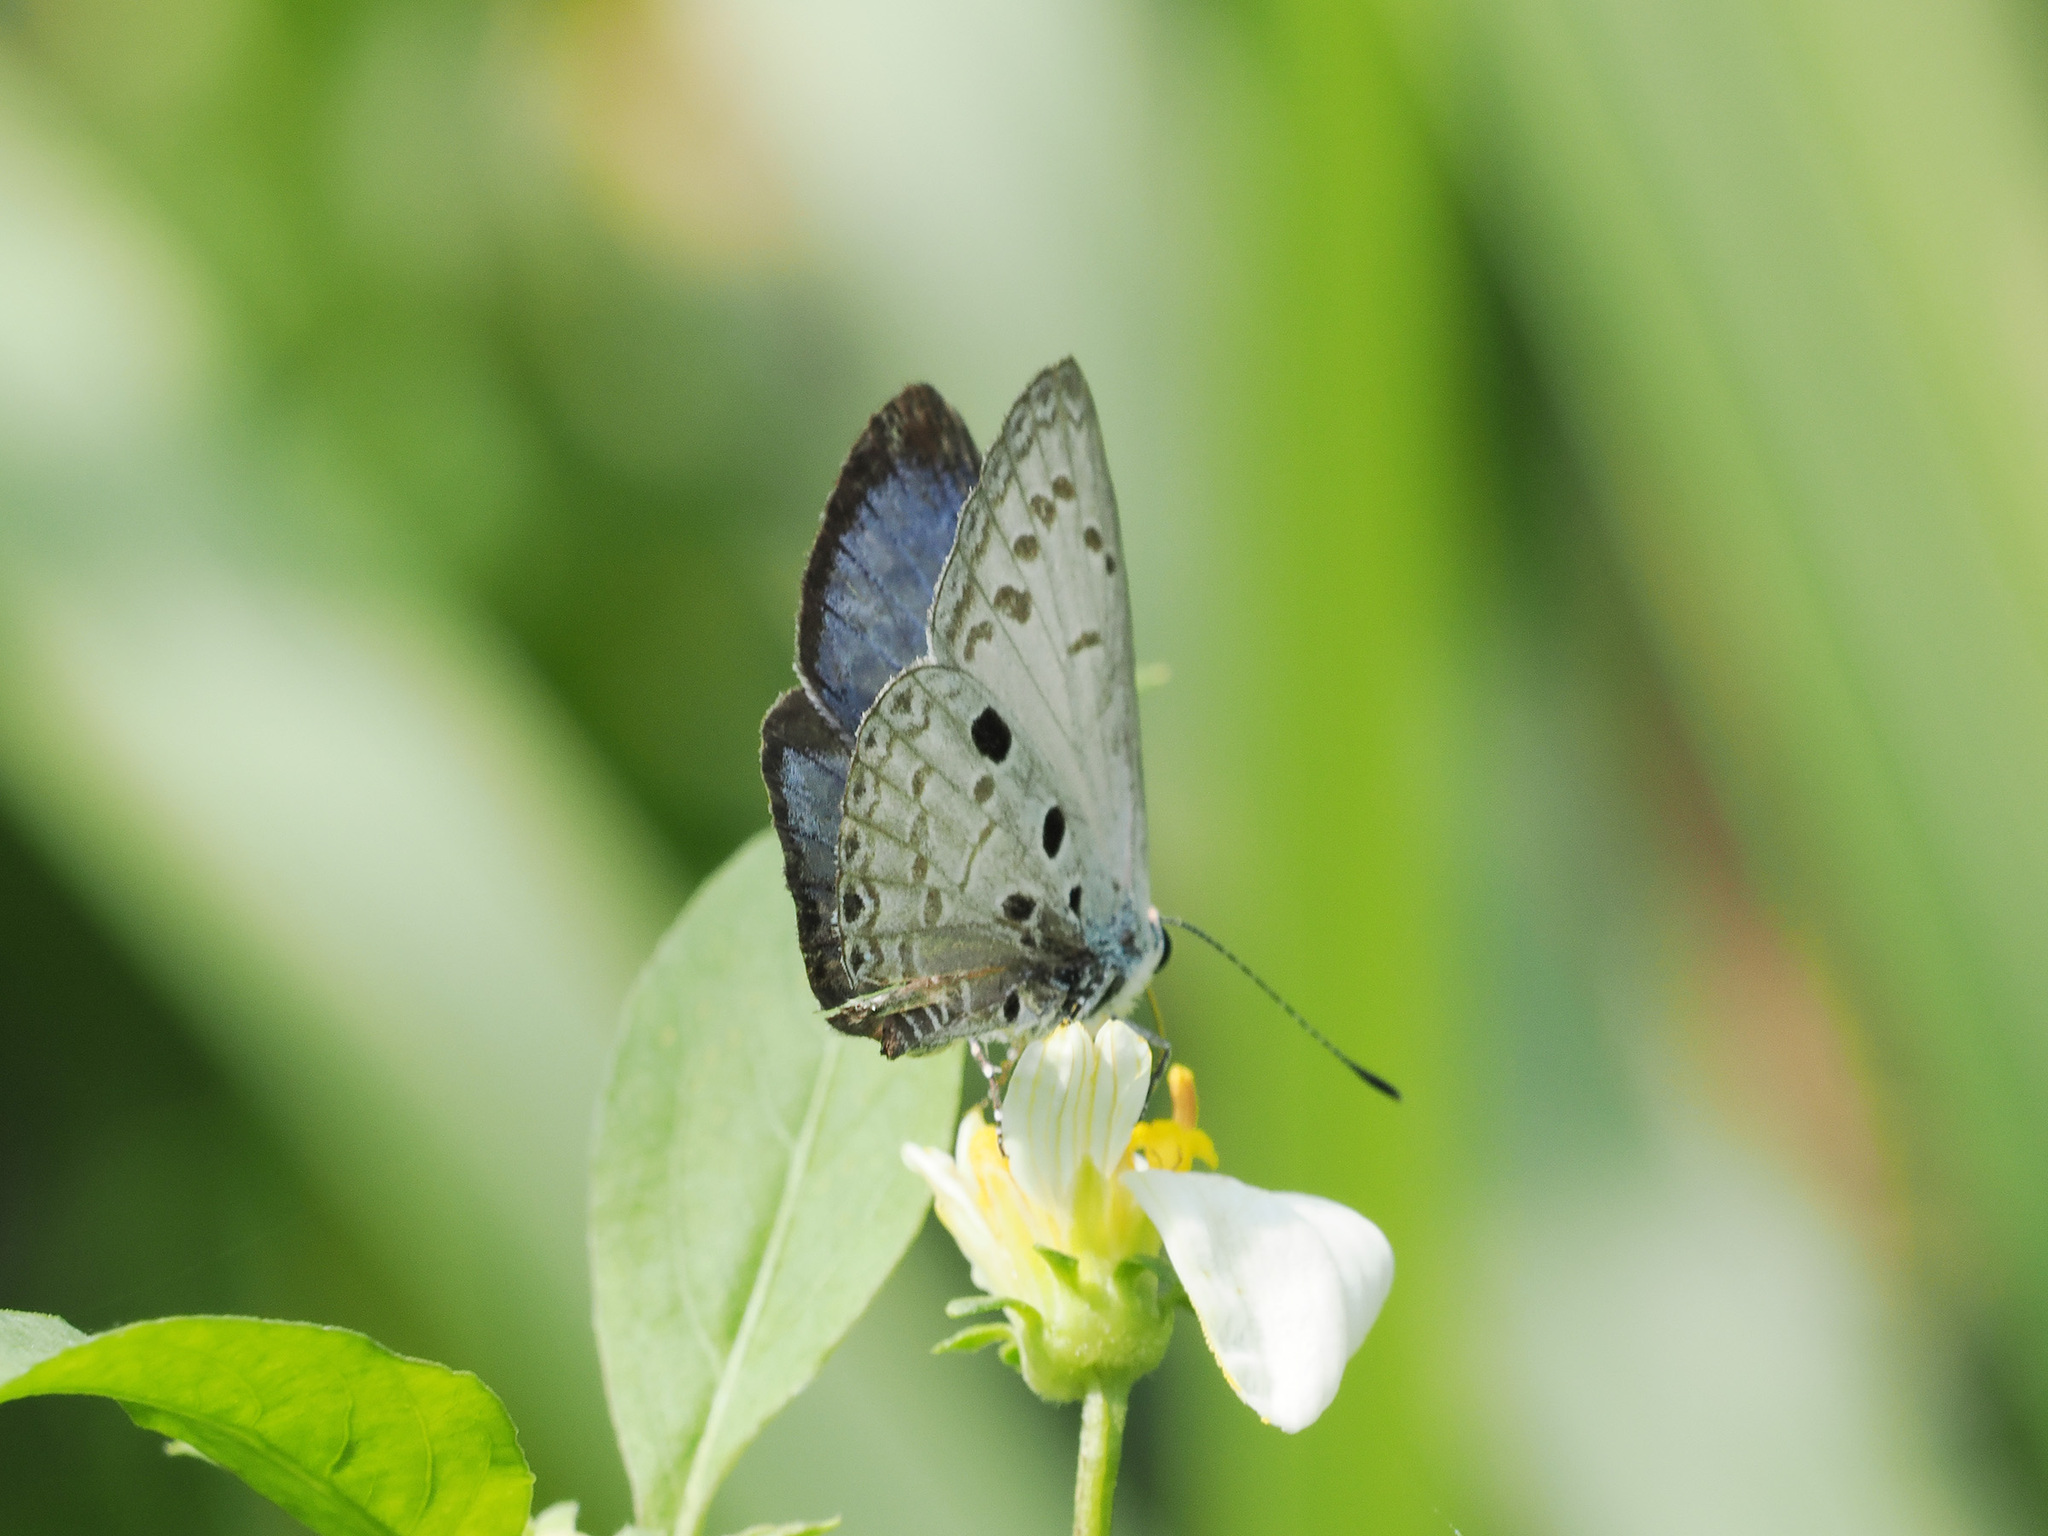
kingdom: Animalia
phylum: Arthropoda
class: Insecta
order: Lepidoptera
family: Lycaenidae
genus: Acytolepis
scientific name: Acytolepis puspa
